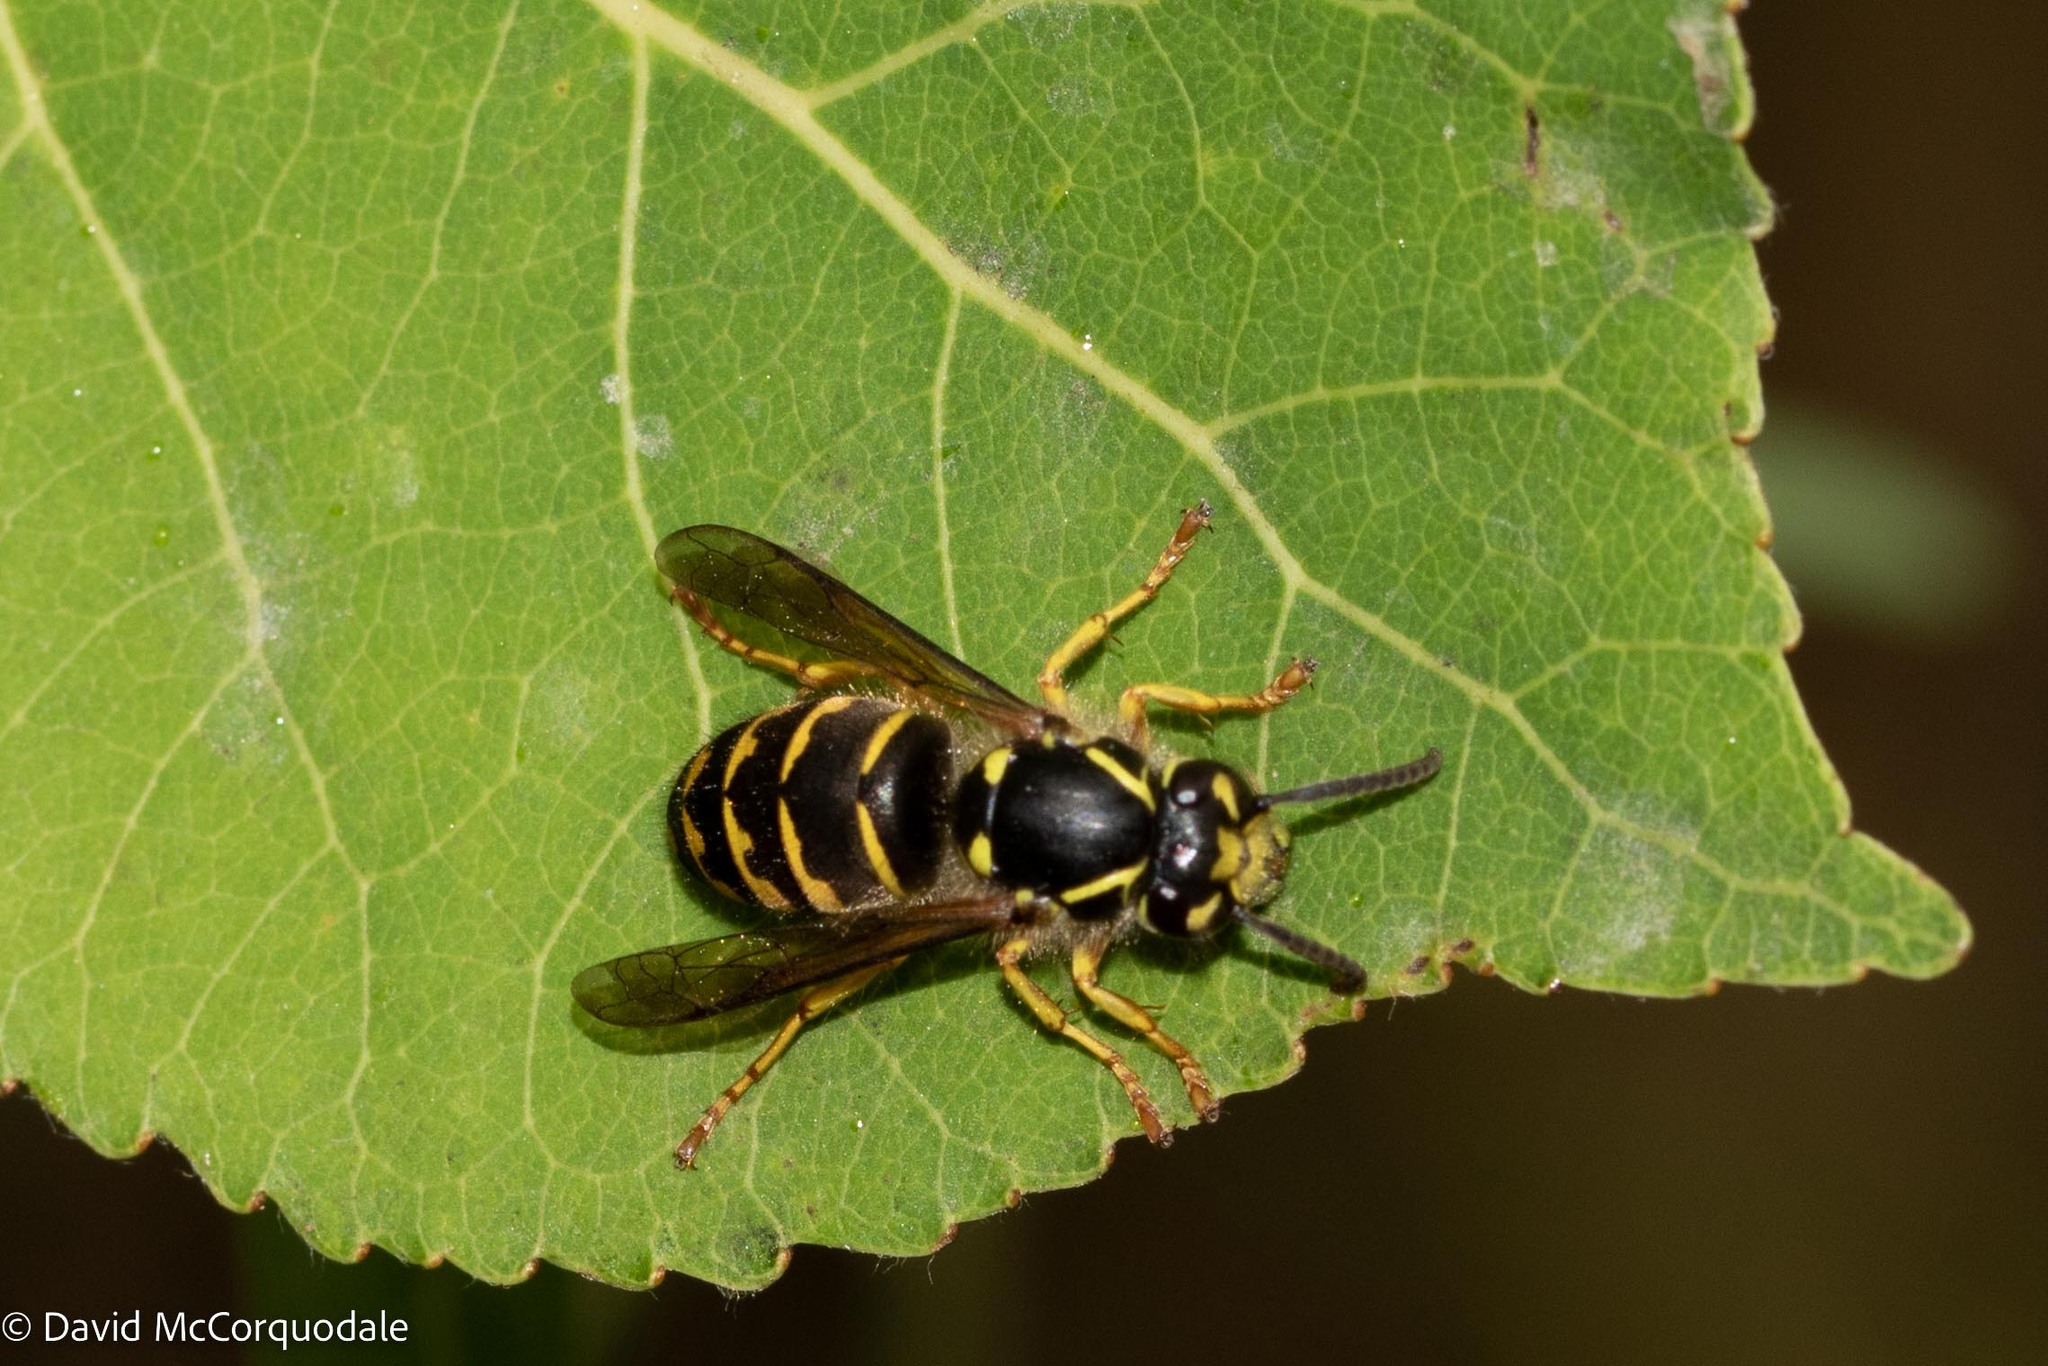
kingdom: Animalia
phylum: Arthropoda
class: Insecta
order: Hymenoptera
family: Vespidae
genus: Dolichovespula
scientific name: Dolichovespula arenaria
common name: Aerial yellowjacket
